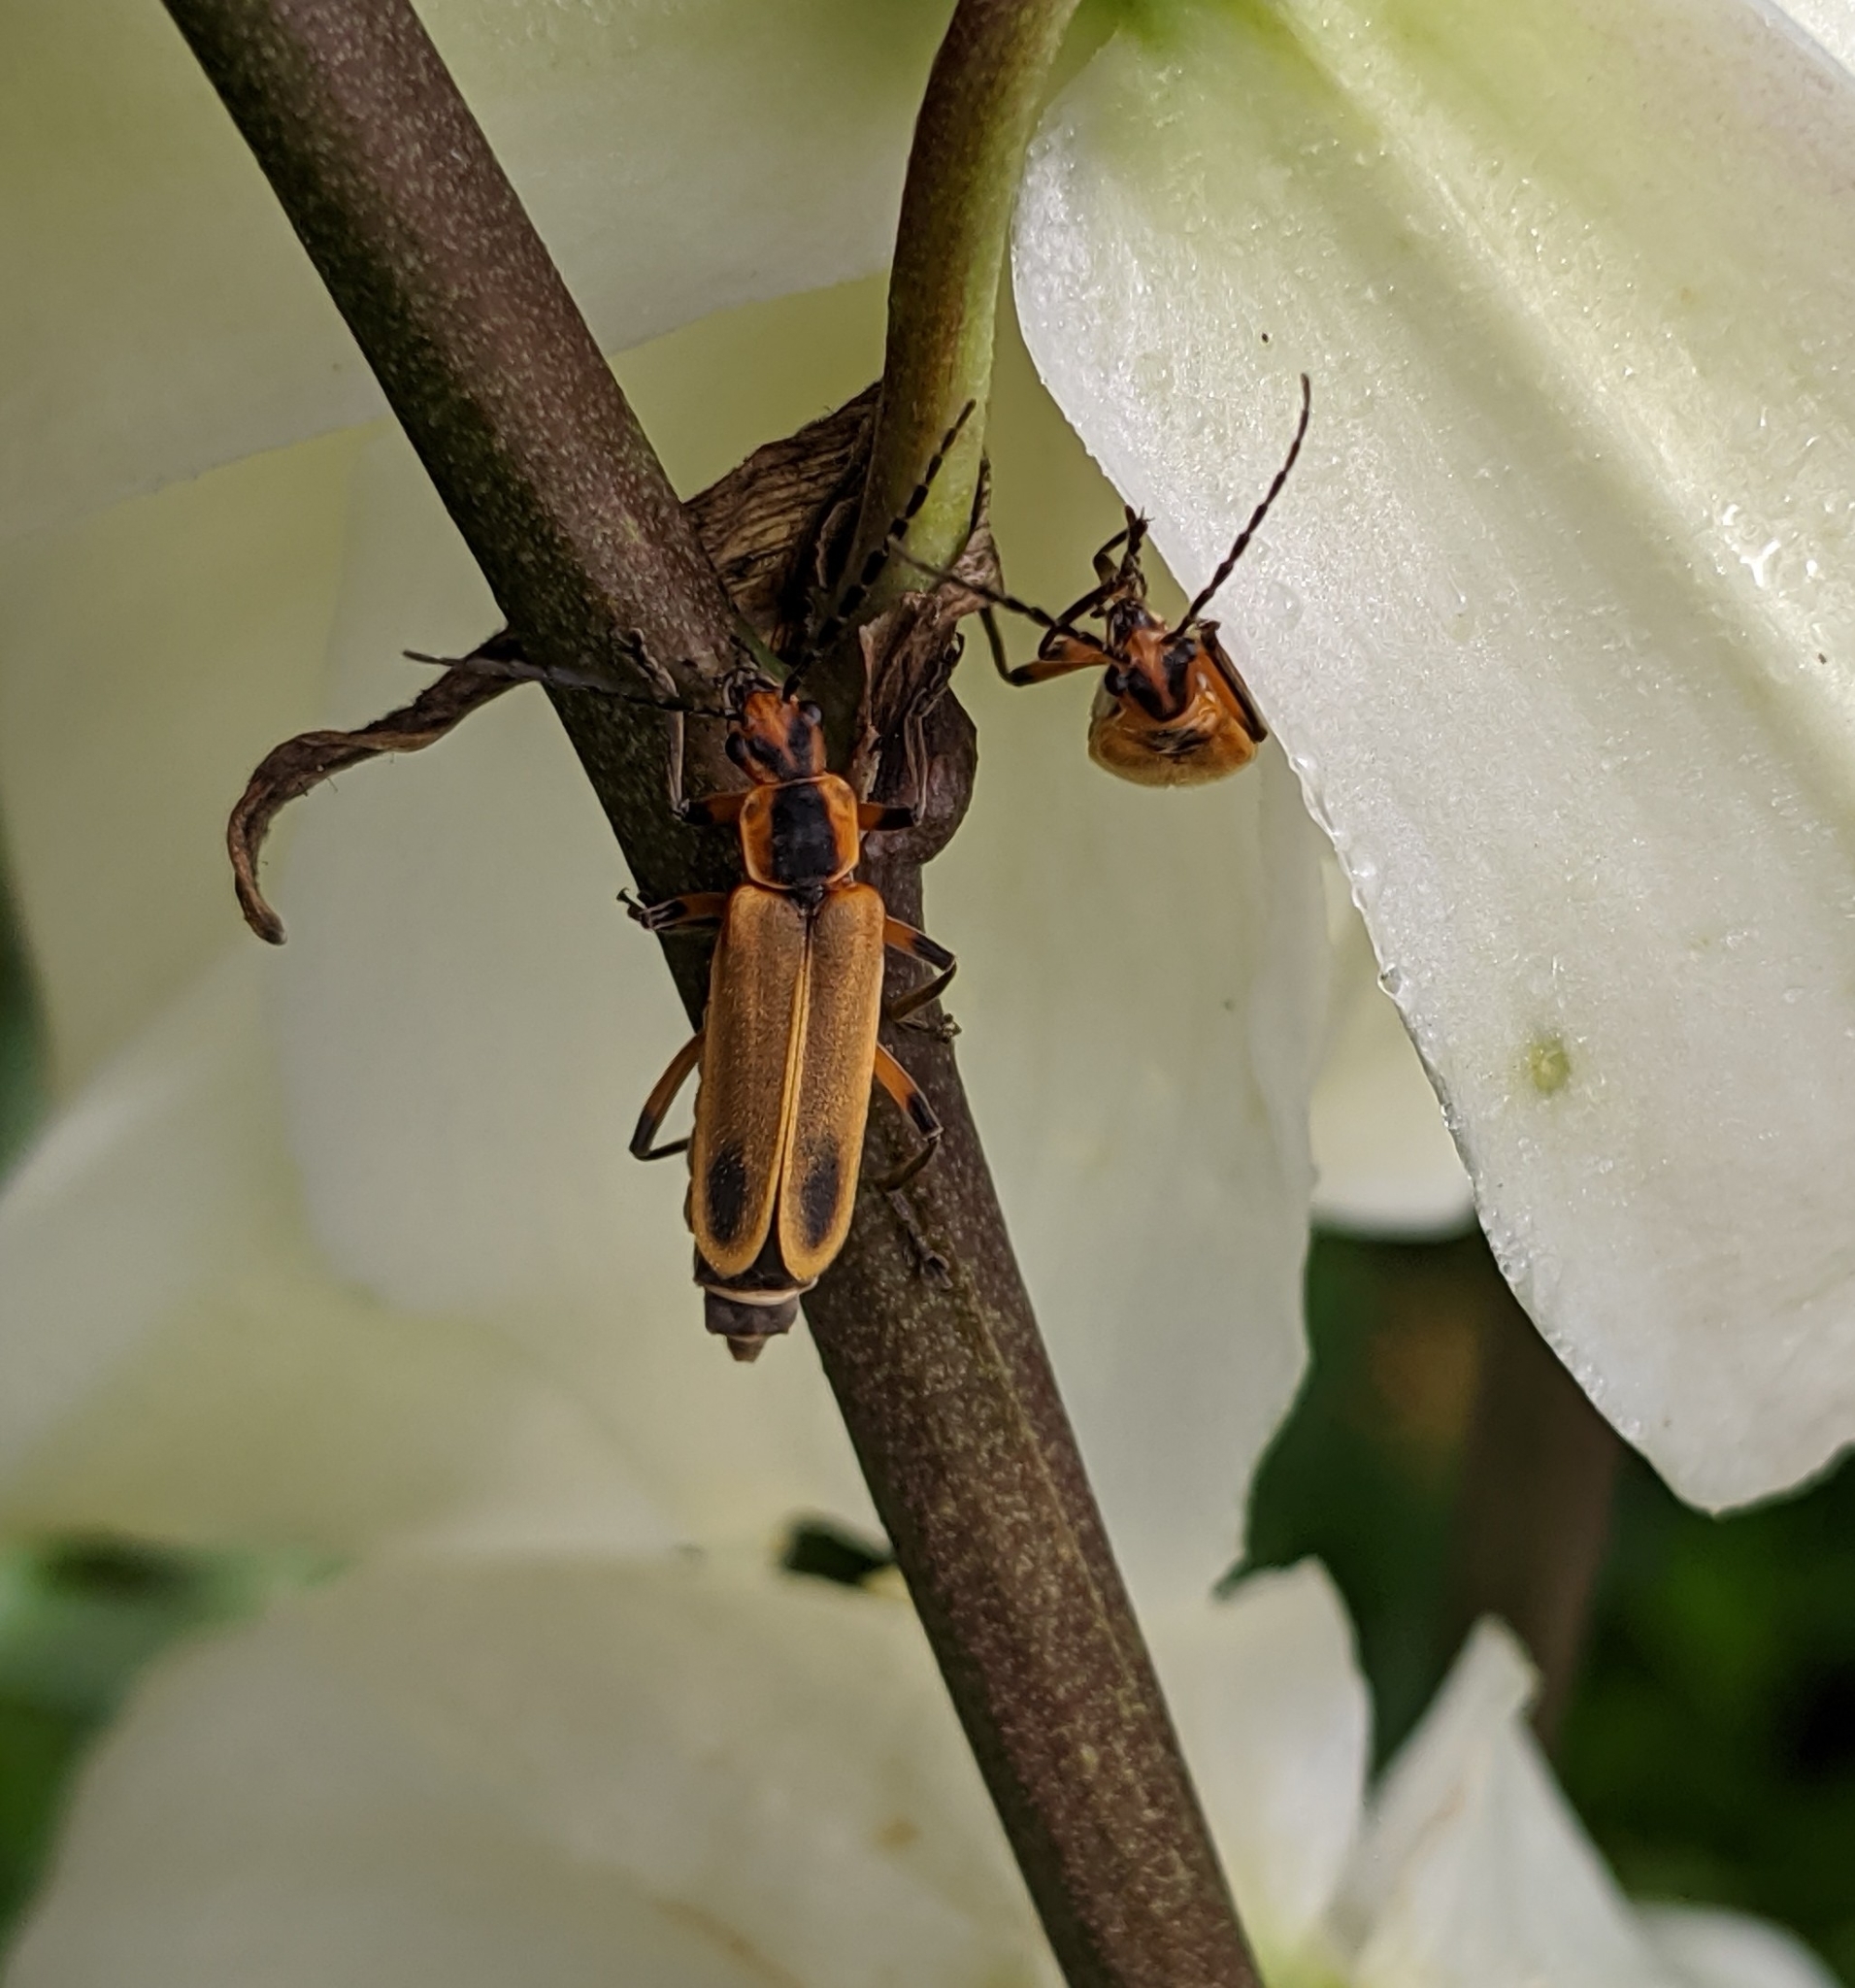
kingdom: Animalia
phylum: Arthropoda
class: Insecta
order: Coleoptera
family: Cantharidae
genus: Chauliognathus
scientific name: Chauliognathus marginatus
